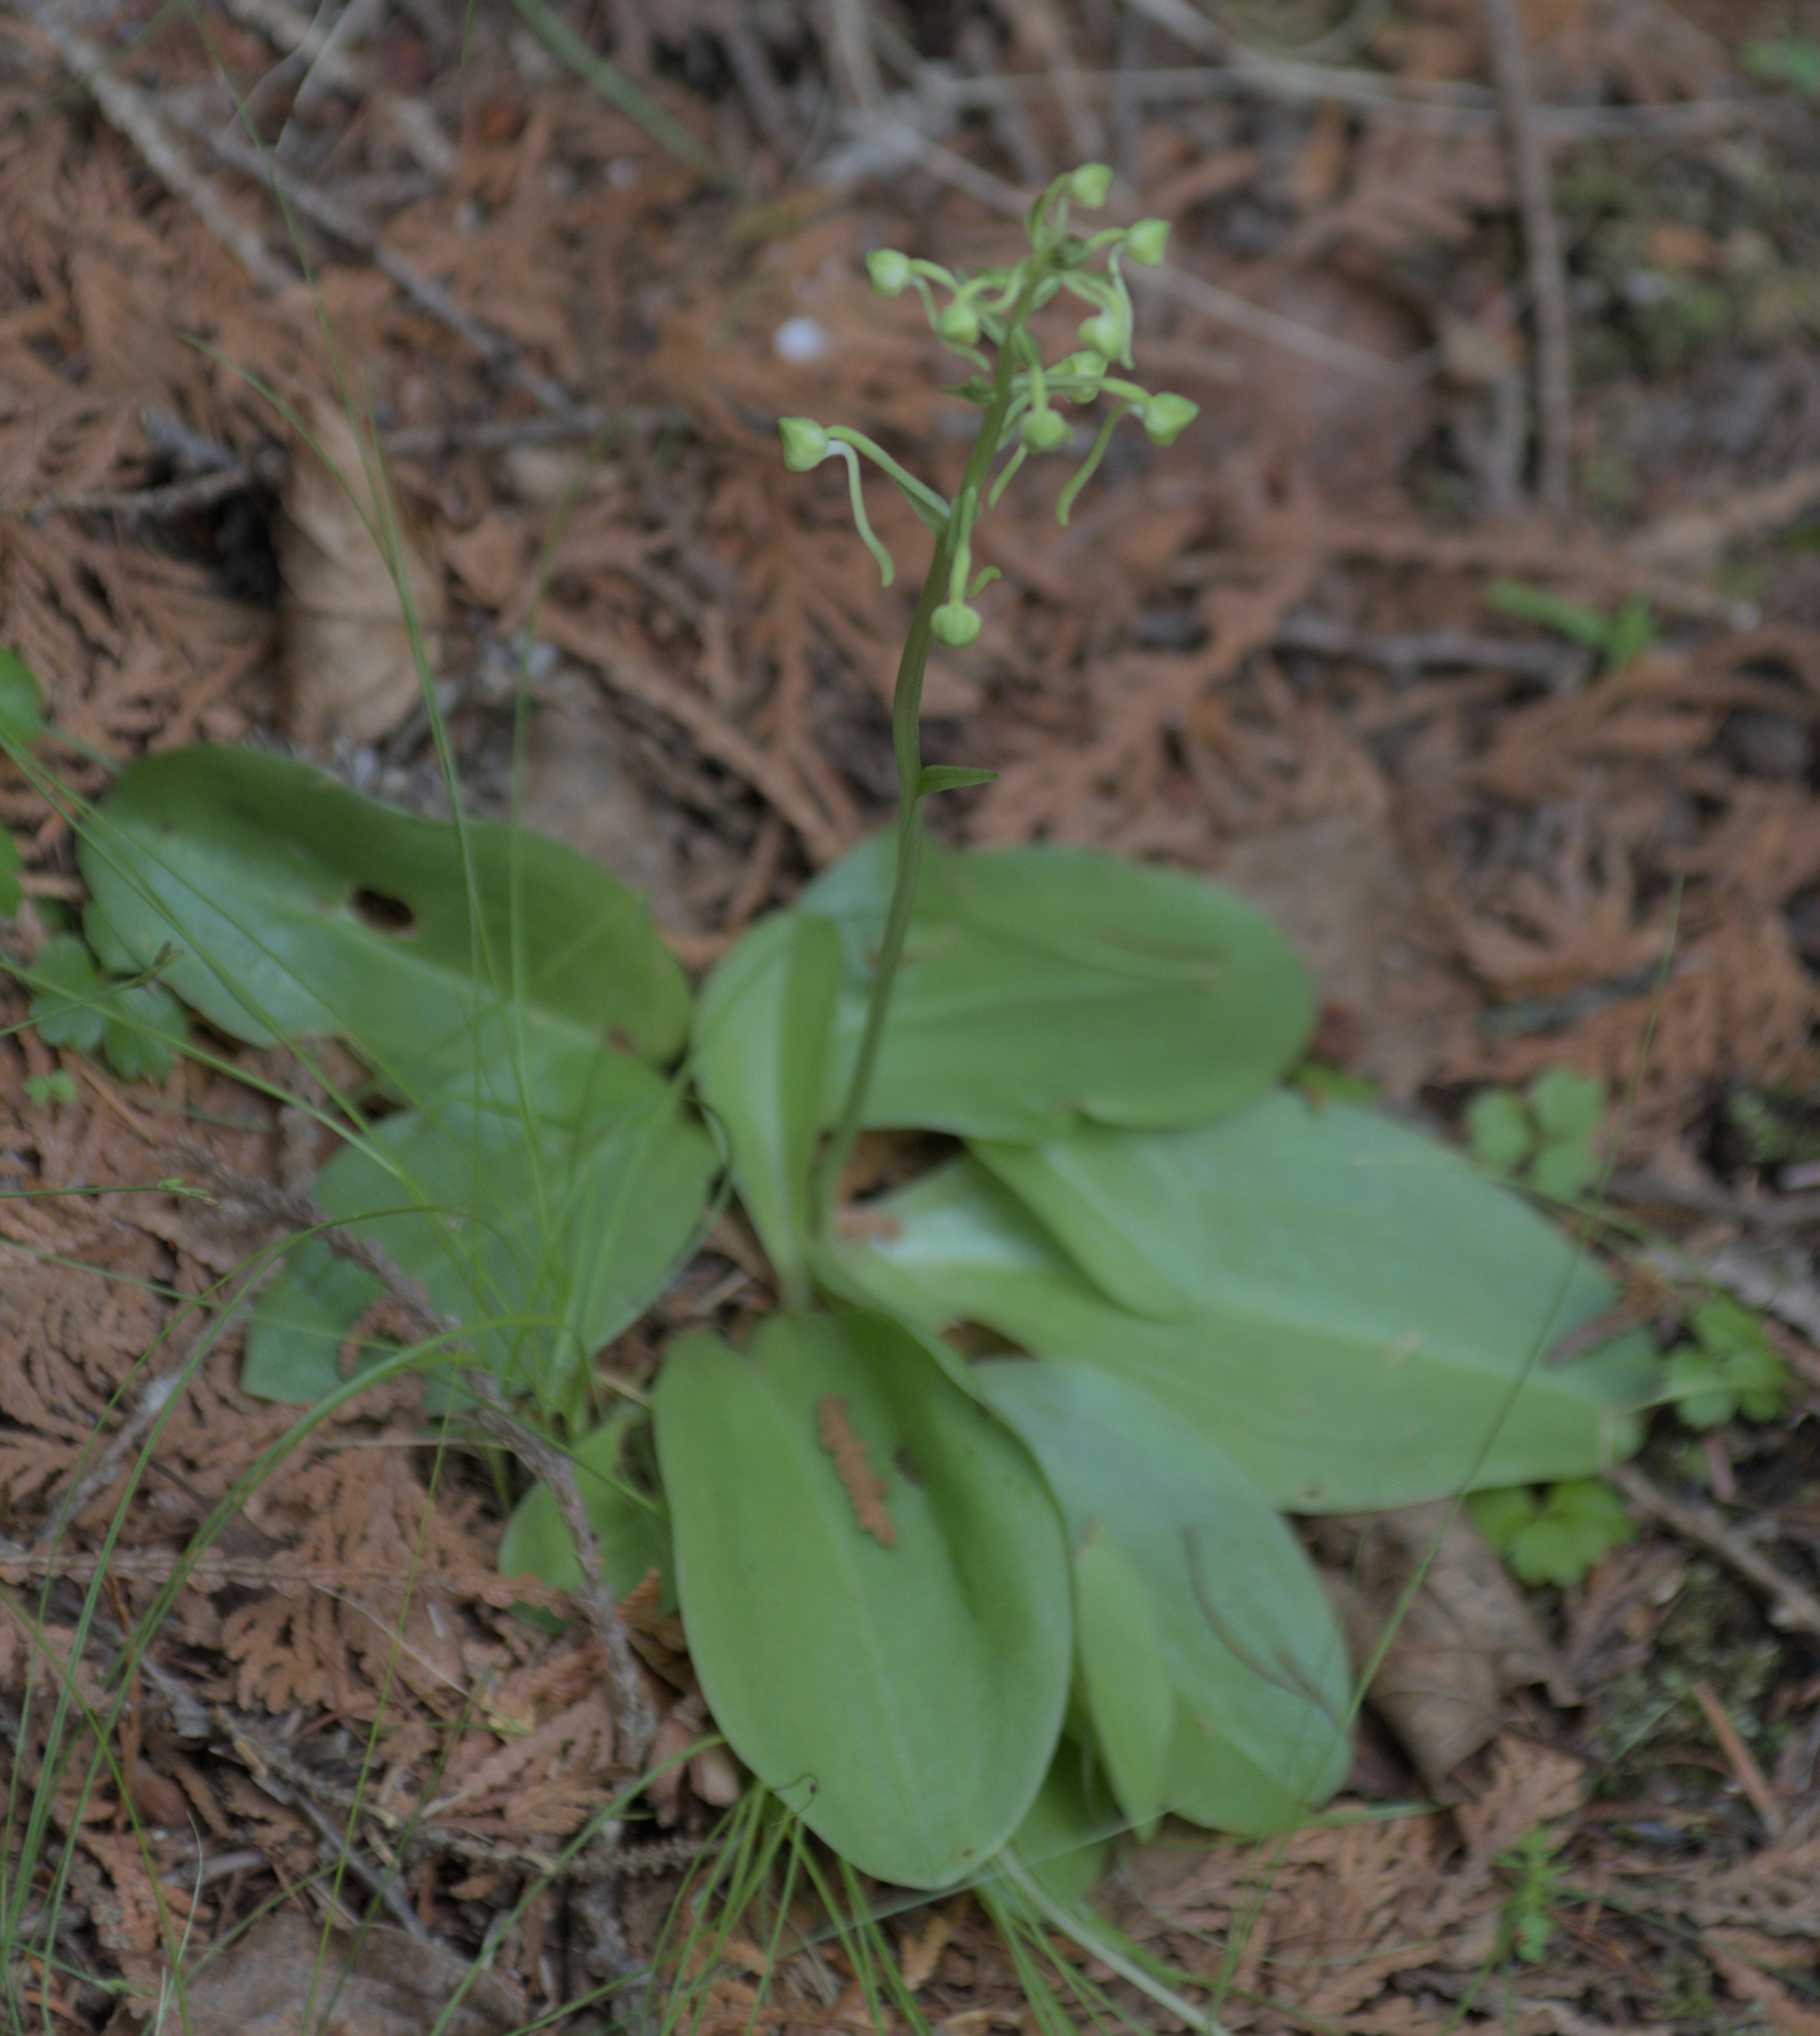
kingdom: Plantae
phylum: Tracheophyta
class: Liliopsida
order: Asparagales
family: Orchidaceae
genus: Platanthera
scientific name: Platanthera orbiculata
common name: Large round-leaved orchid
